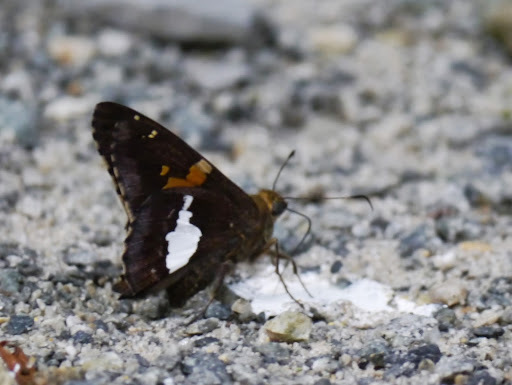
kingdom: Animalia
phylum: Arthropoda
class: Insecta
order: Lepidoptera
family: Hesperiidae
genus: Epargyreus
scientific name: Epargyreus clarus
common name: Silver-spotted skipper
